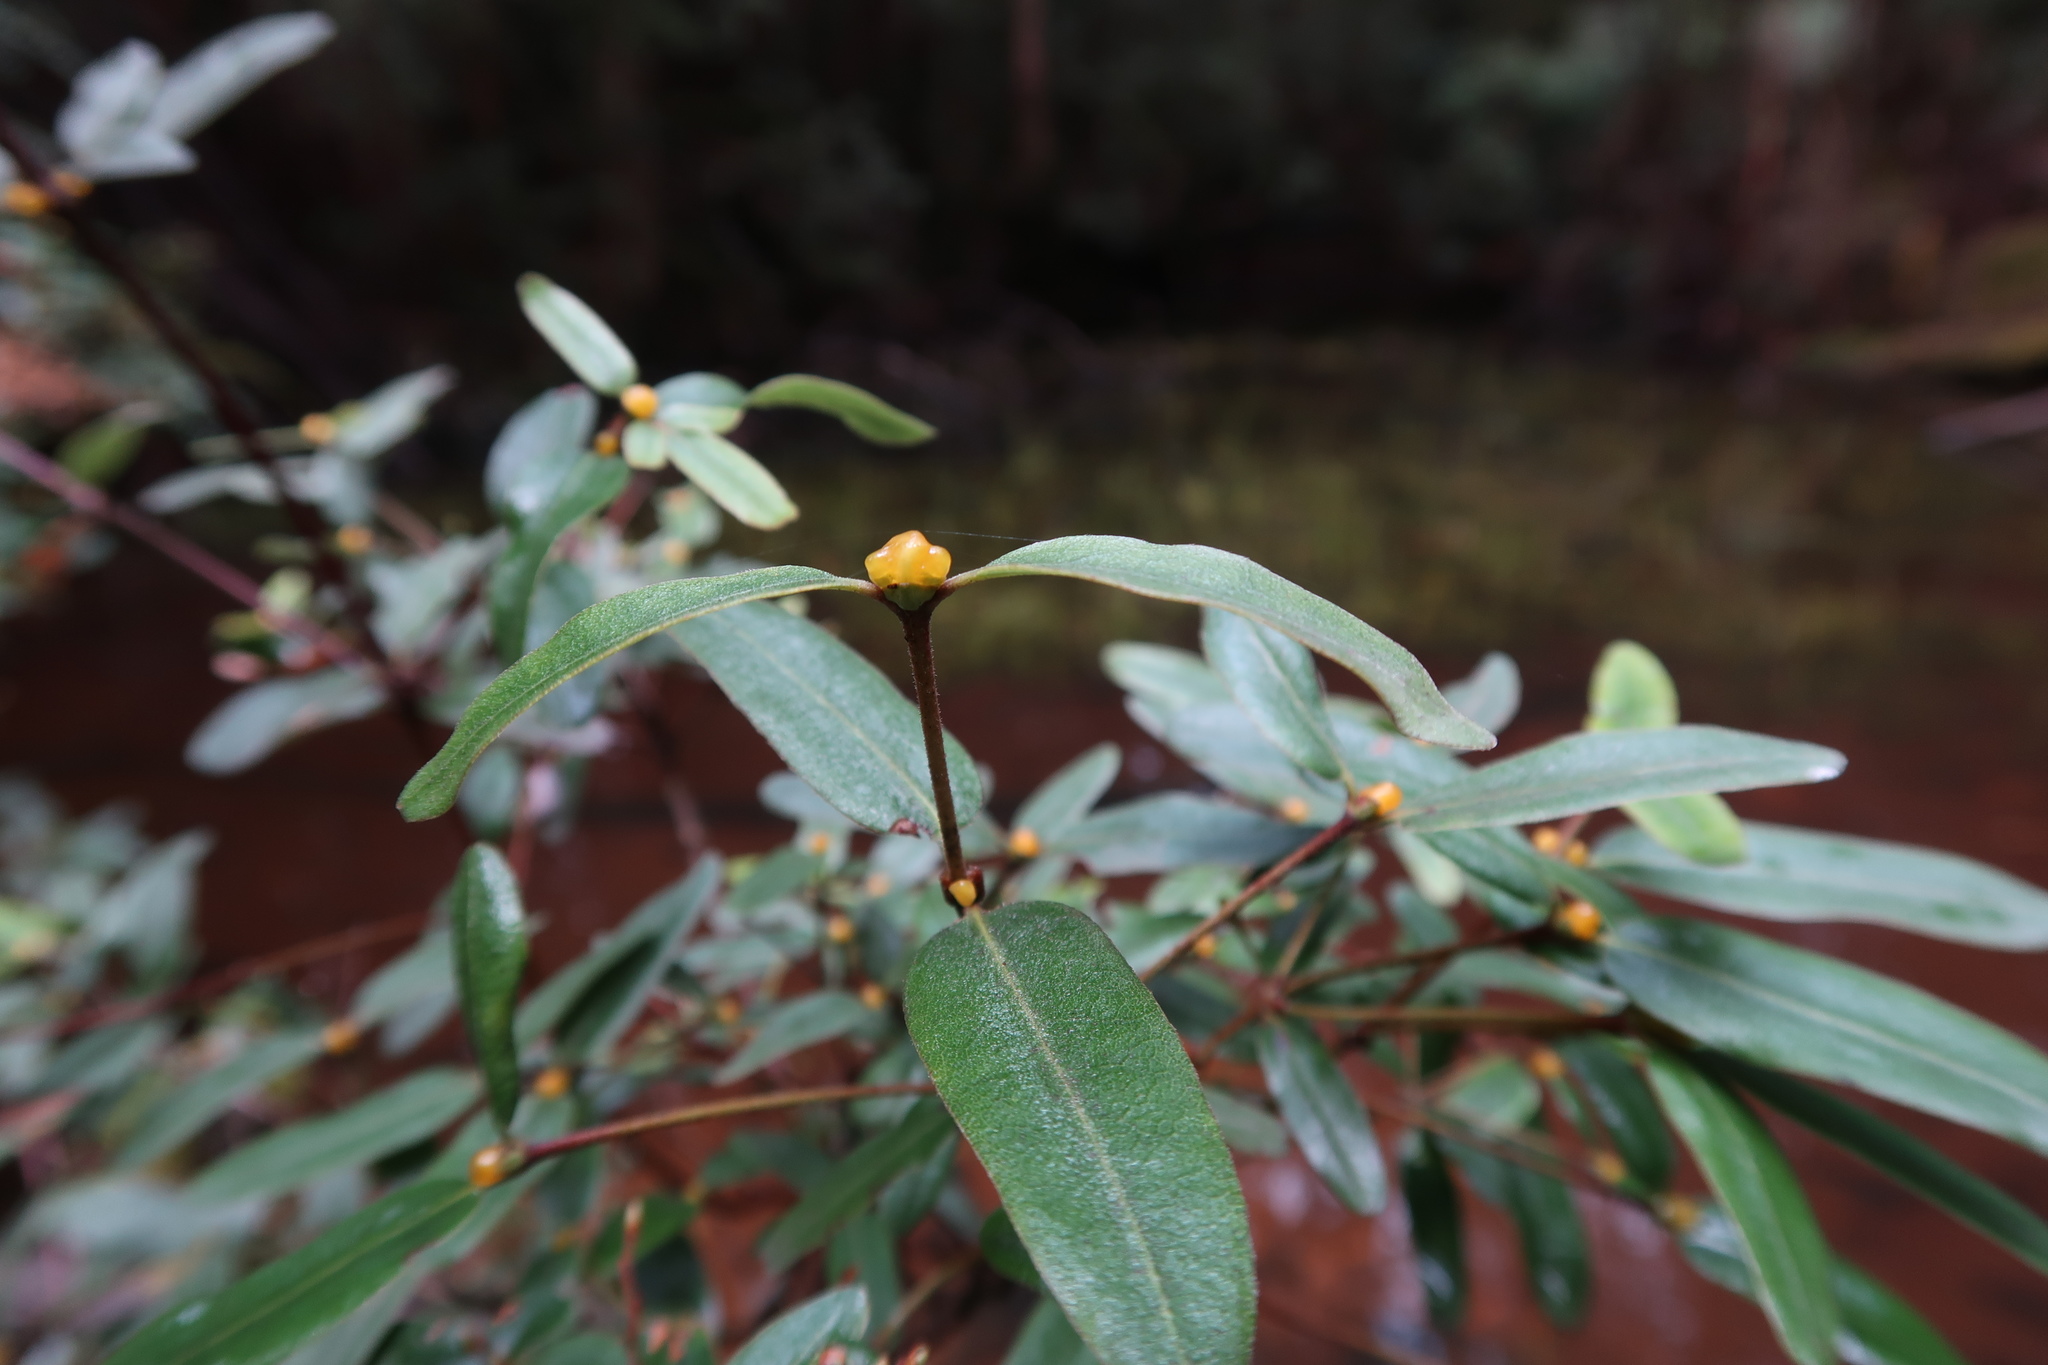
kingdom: Plantae
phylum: Tracheophyta
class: Magnoliopsida
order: Oxalidales
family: Cunoniaceae
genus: Eucryphia
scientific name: Eucryphia lucida
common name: Leatherwood
